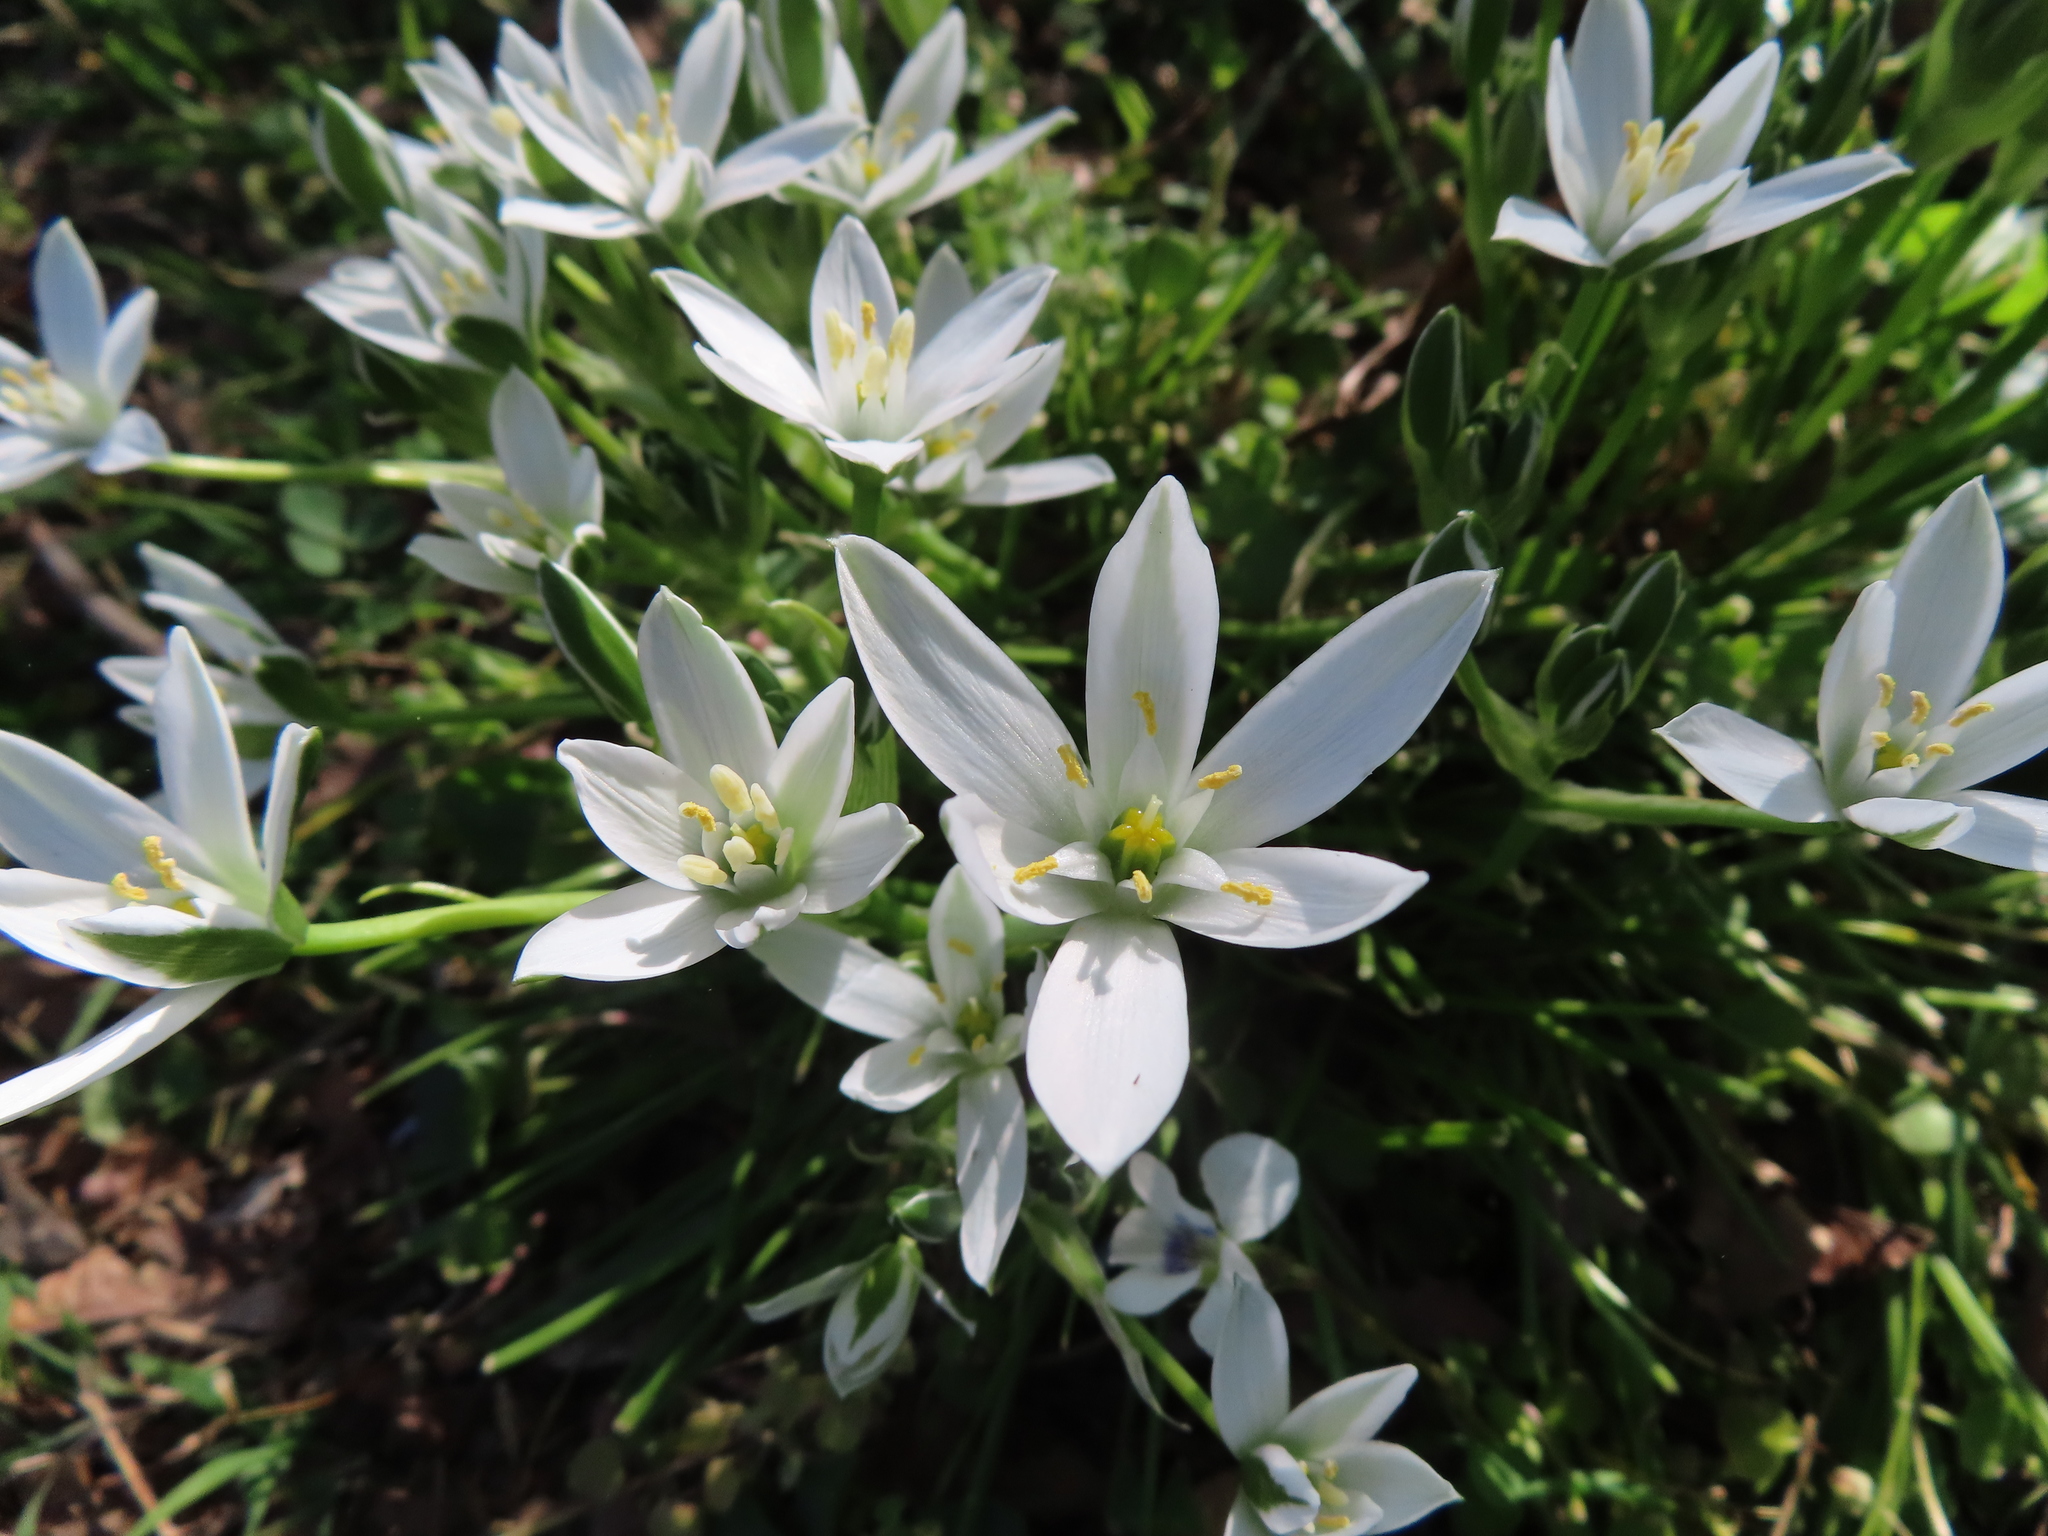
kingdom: Plantae
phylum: Tracheophyta
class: Liliopsida
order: Asparagales
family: Asparagaceae
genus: Ornithogalum
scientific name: Ornithogalum umbellatum
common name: Garden star-of-bethlehem
